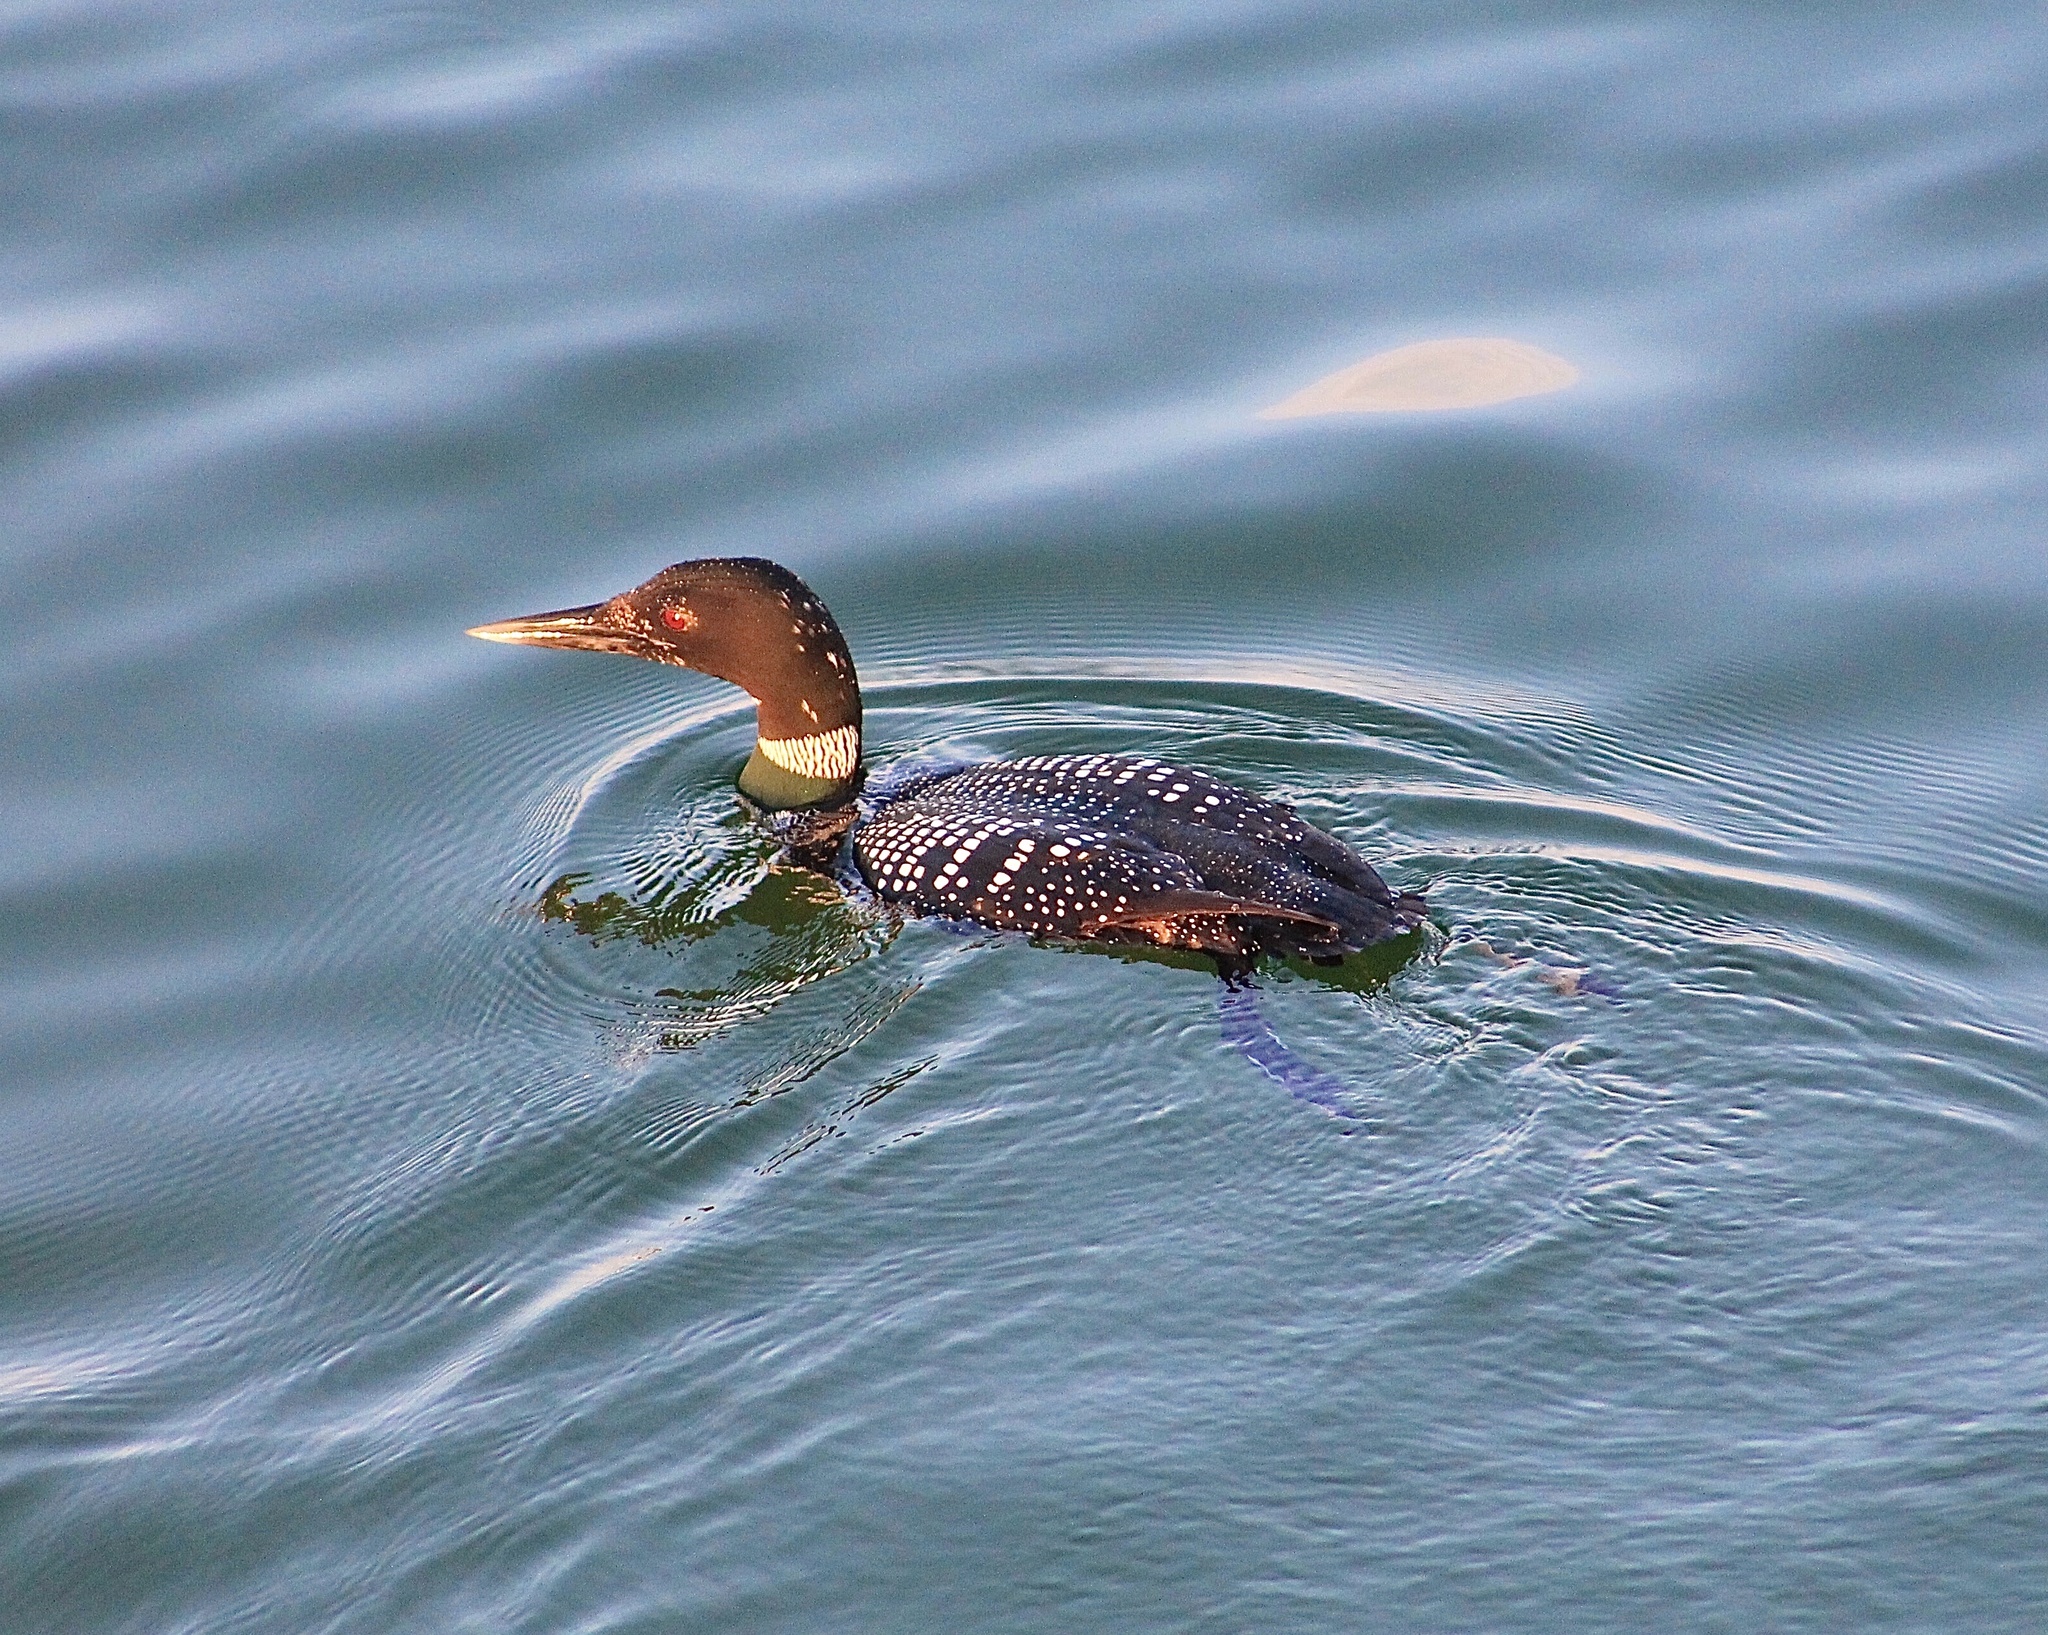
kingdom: Animalia
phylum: Chordata
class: Aves
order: Gaviiformes
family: Gaviidae
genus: Gavia
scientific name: Gavia immer
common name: Common loon
